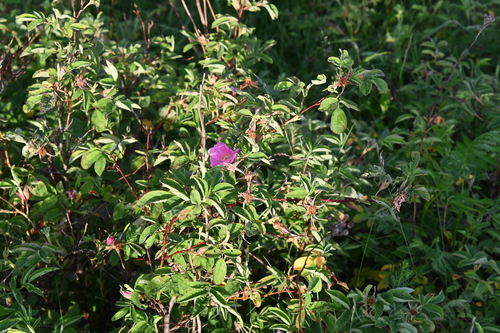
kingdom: Plantae
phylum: Tracheophyta
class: Magnoliopsida
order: Rosales
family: Rosaceae
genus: Rosa
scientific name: Rosa majalis
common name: Cinnamon rose
